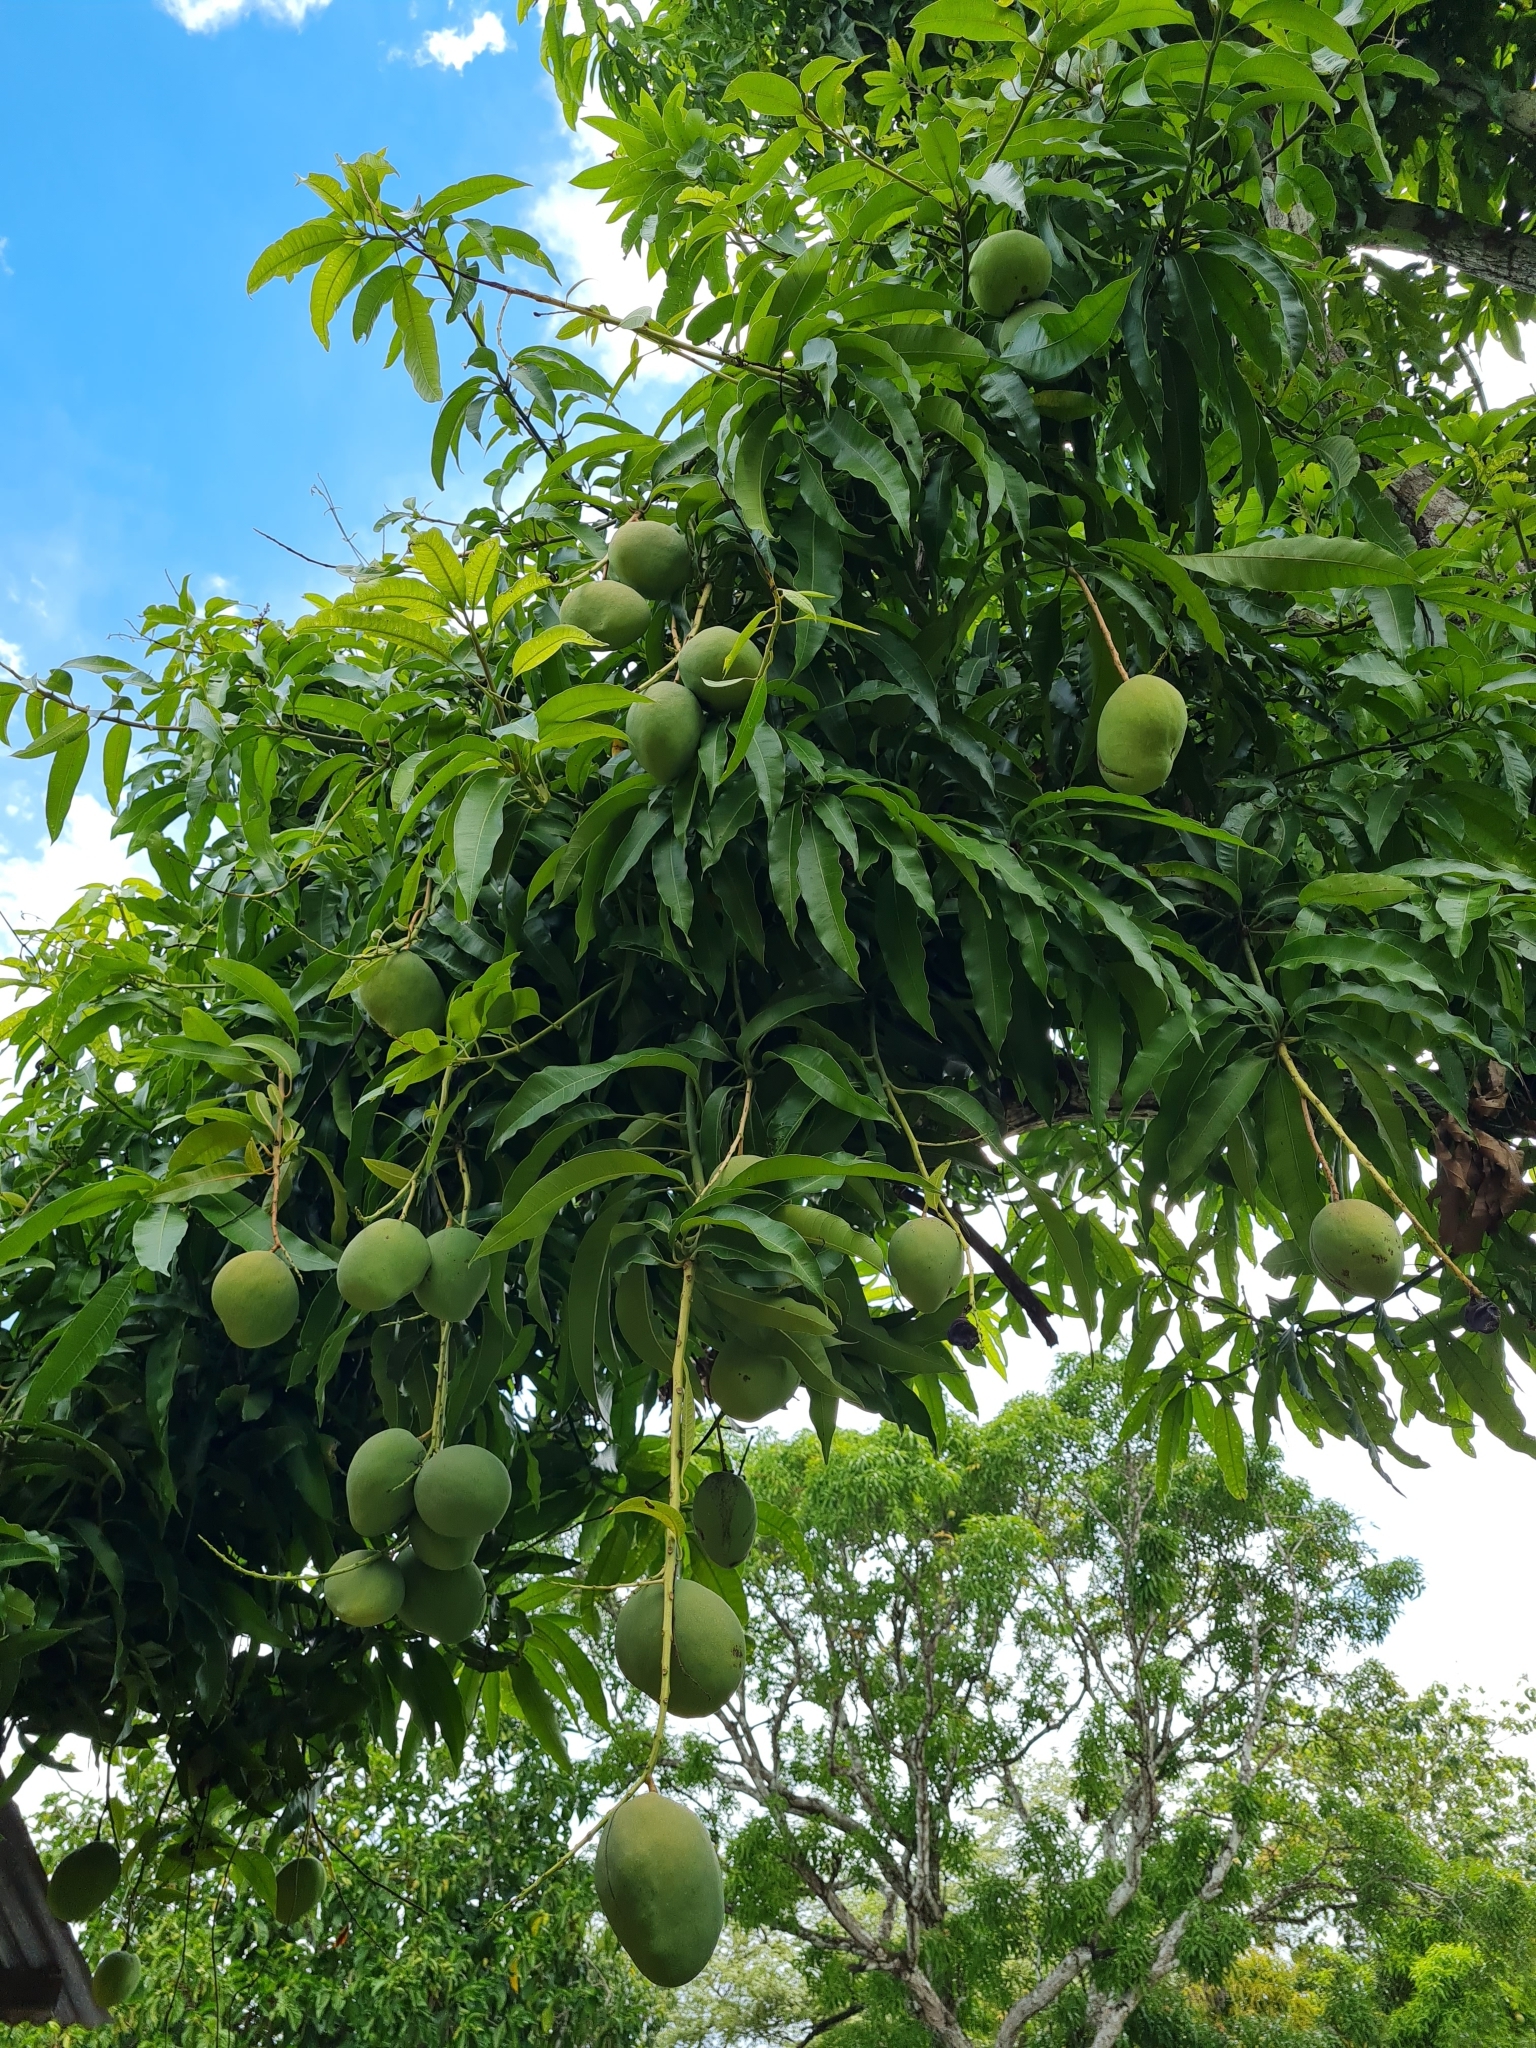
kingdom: Plantae
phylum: Tracheophyta
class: Magnoliopsida
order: Sapindales
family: Anacardiaceae
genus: Mangifera
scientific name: Mangifera indica
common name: Mango
